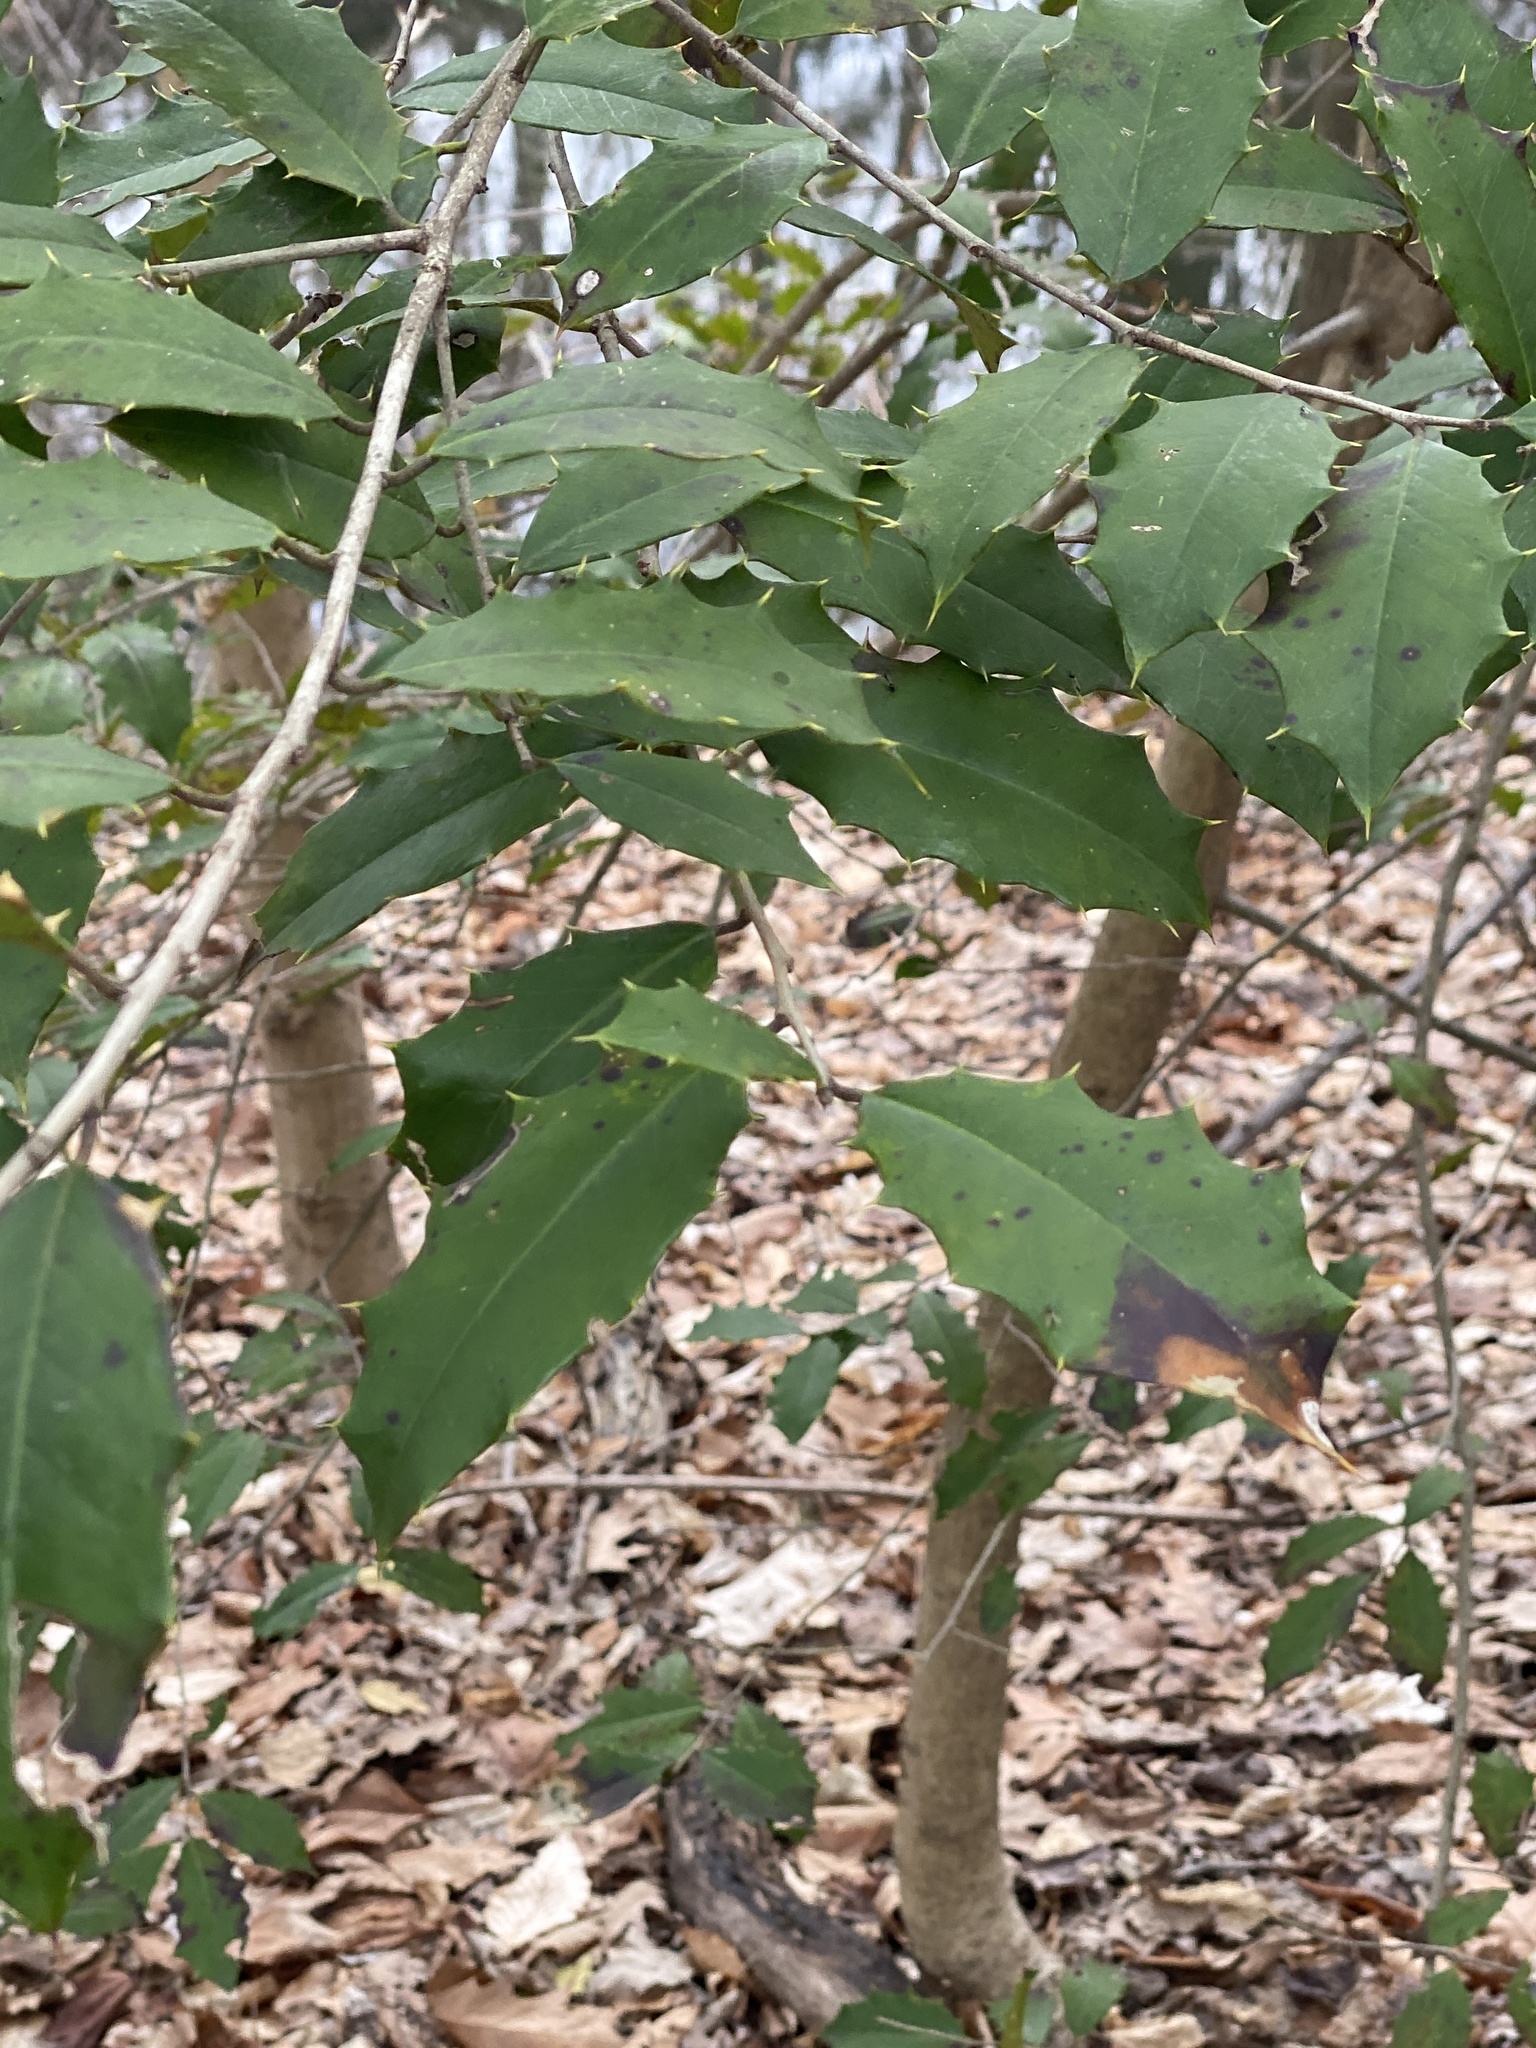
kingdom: Plantae
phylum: Tracheophyta
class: Magnoliopsida
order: Aquifoliales
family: Aquifoliaceae
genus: Ilex
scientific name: Ilex opaca
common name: American holly
